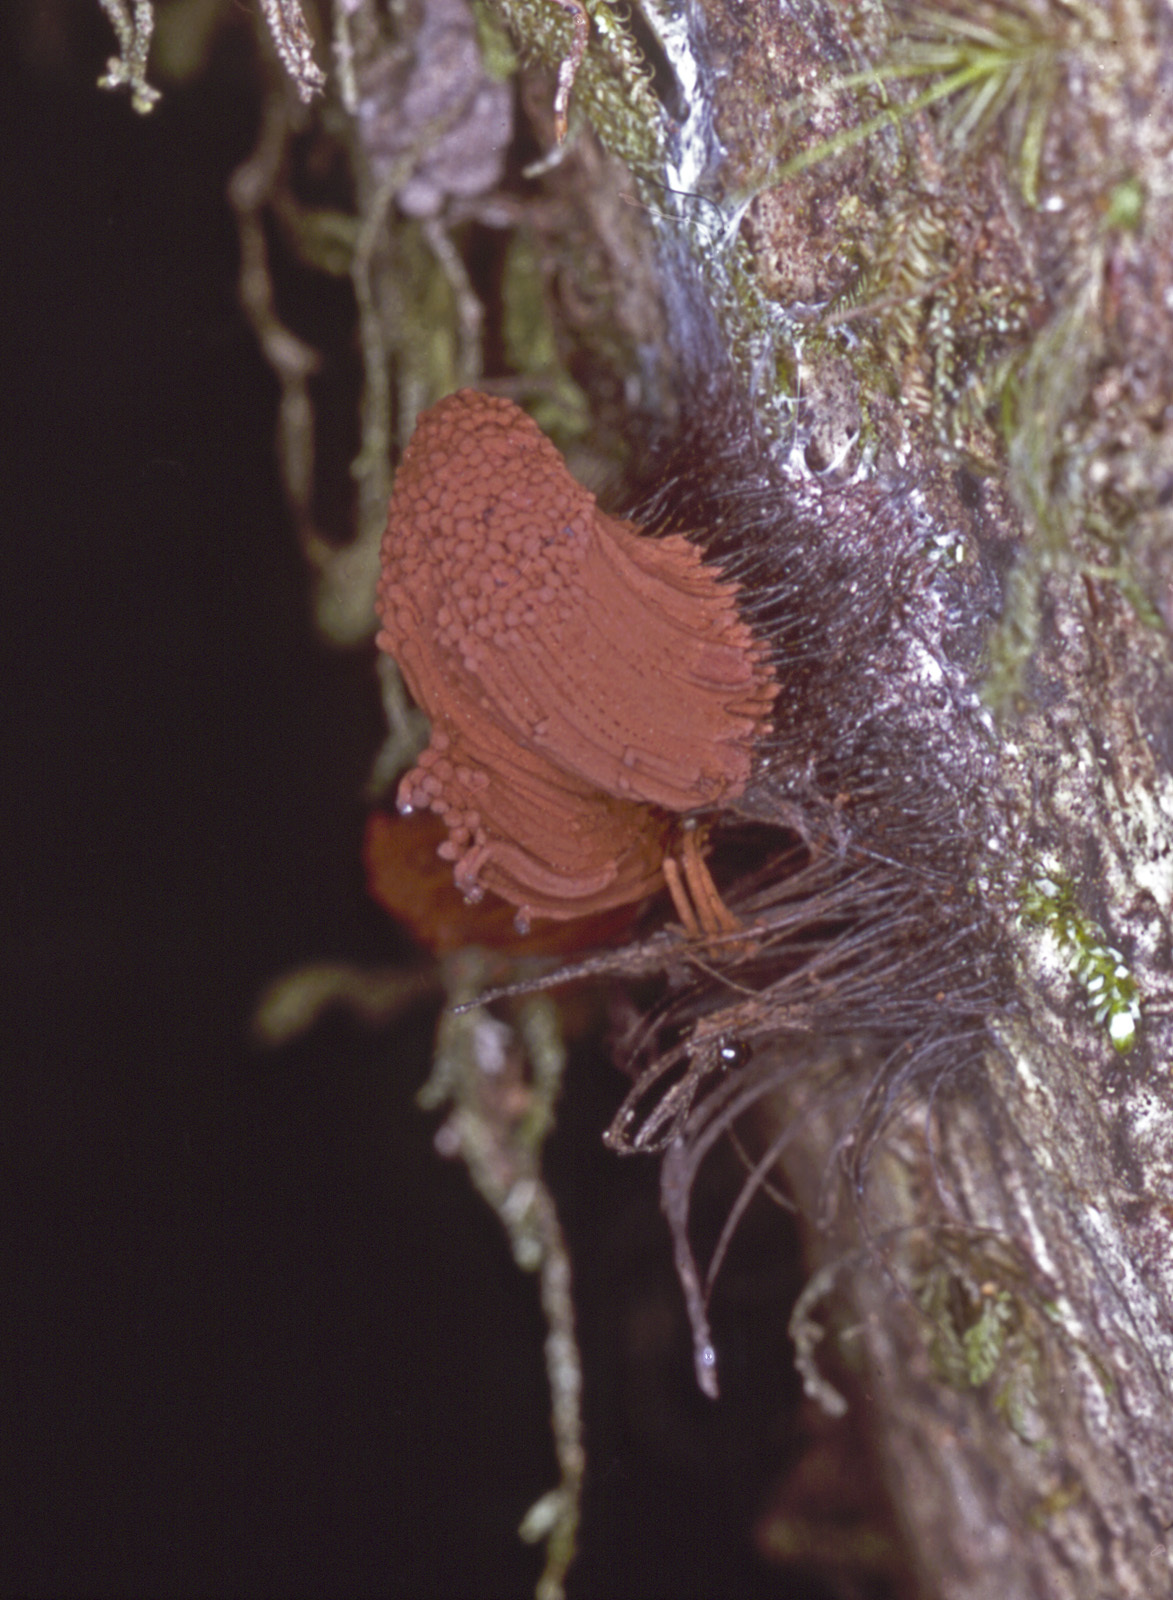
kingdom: Protozoa
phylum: Mycetozoa
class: Myxomycetes
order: Stemonitidales
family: Stemonitidaceae
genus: Stemonitis
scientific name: Stemonitis fusca
